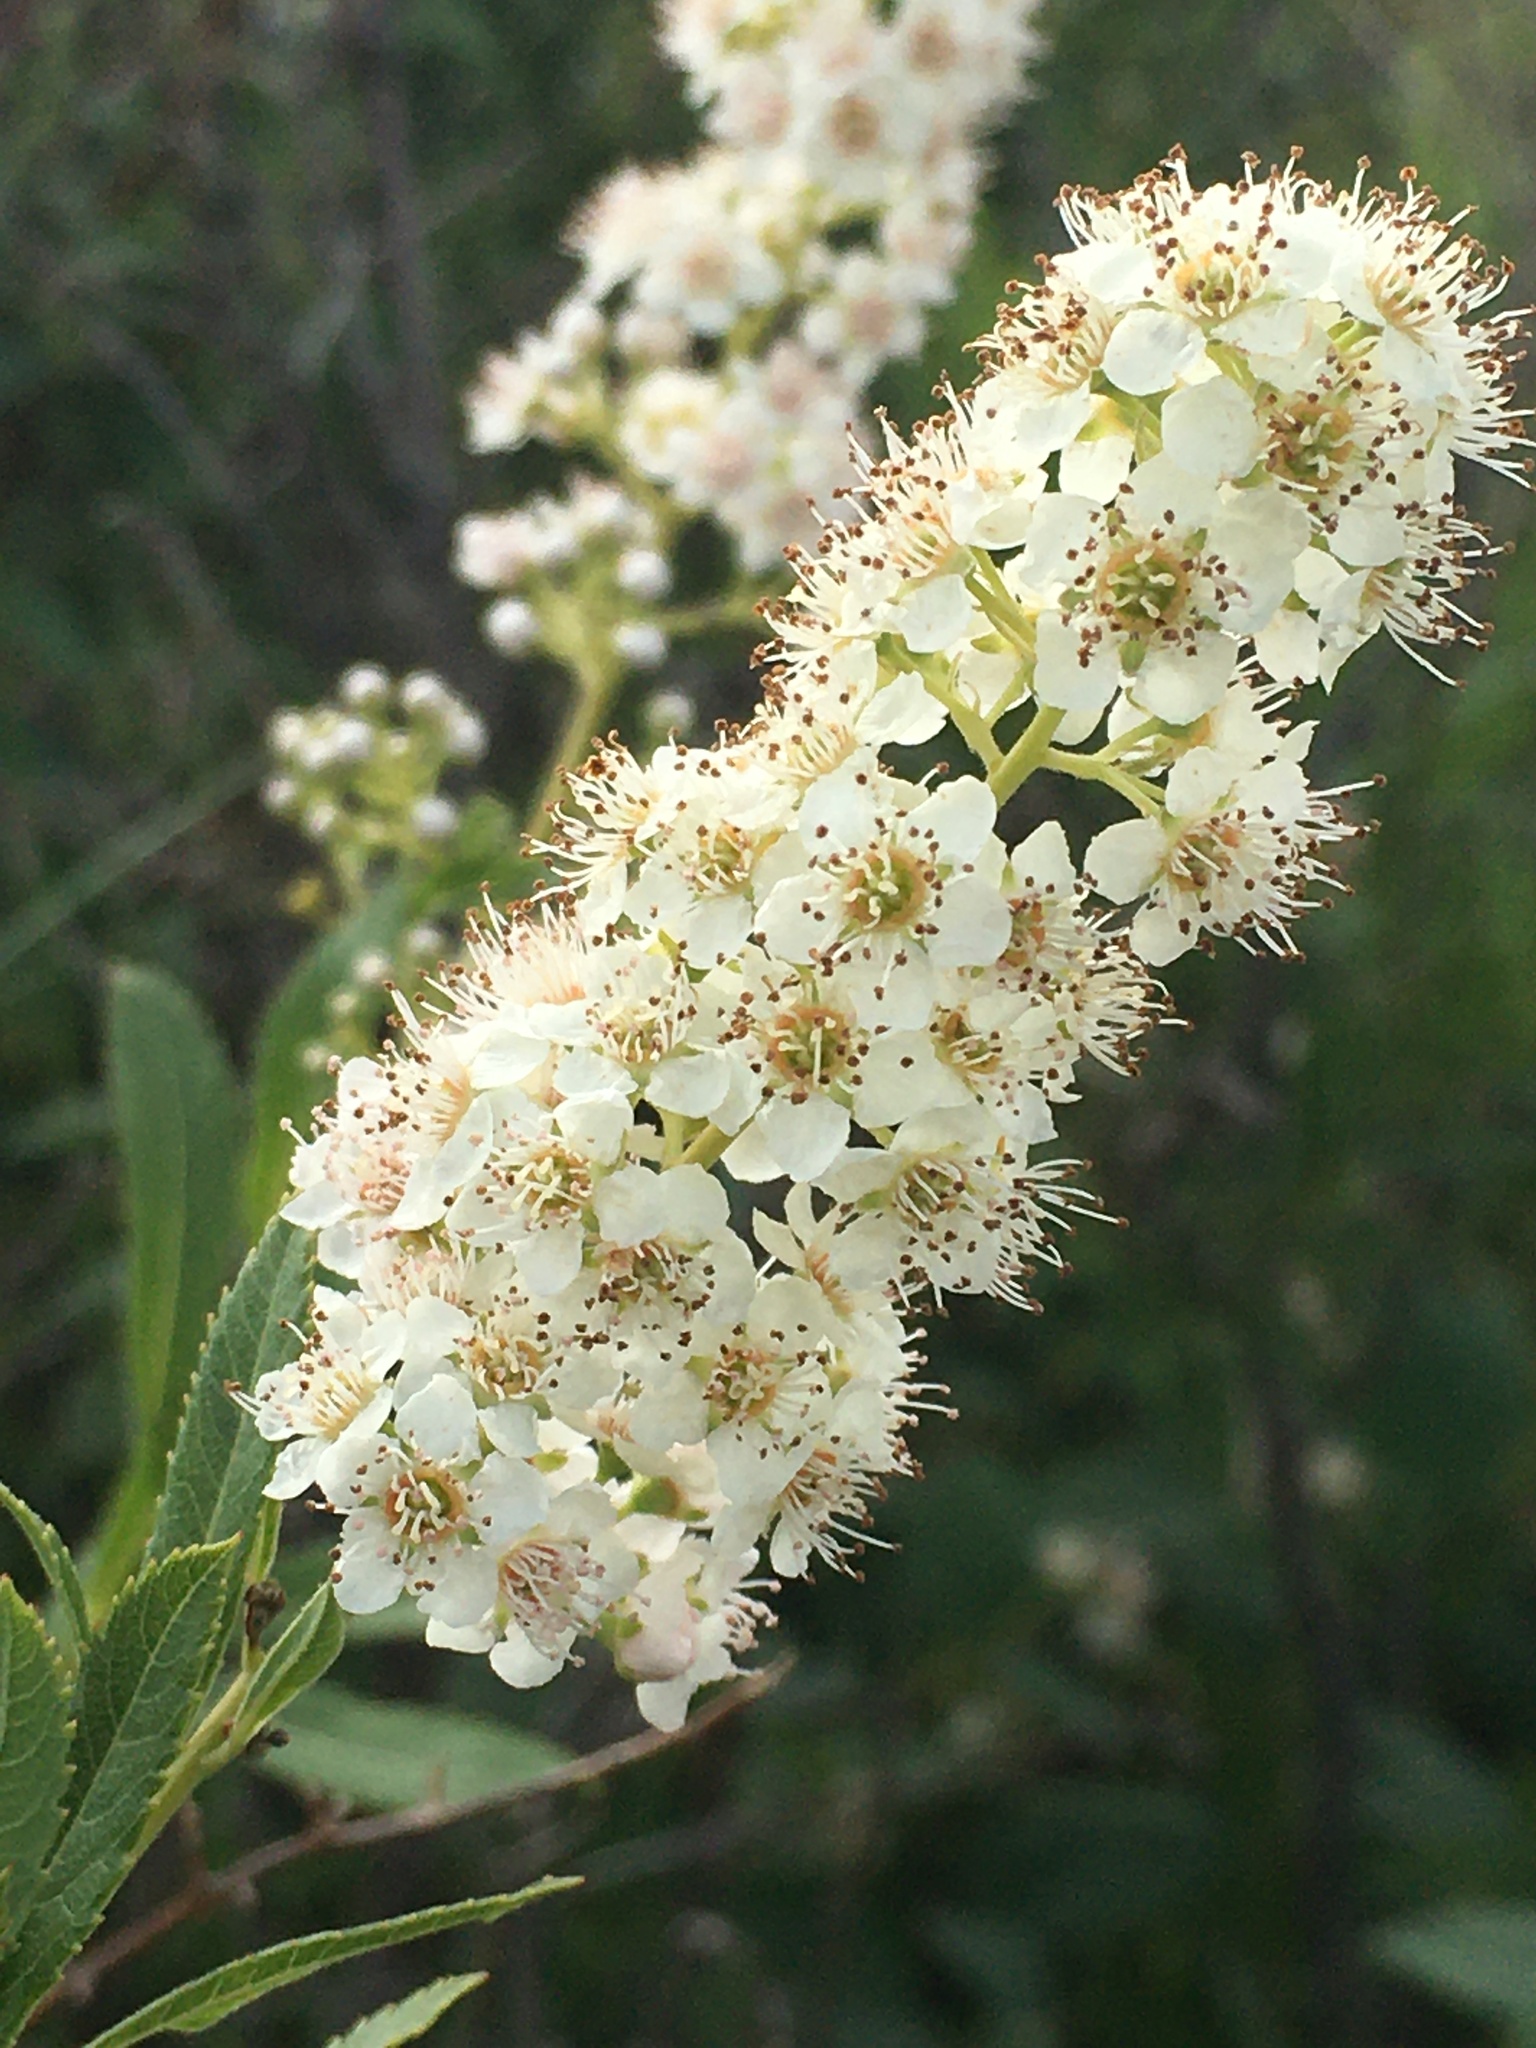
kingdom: Plantae
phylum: Tracheophyta
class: Magnoliopsida
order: Rosales
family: Rosaceae
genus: Spiraea
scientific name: Spiraea alba
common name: Pale bridewort
